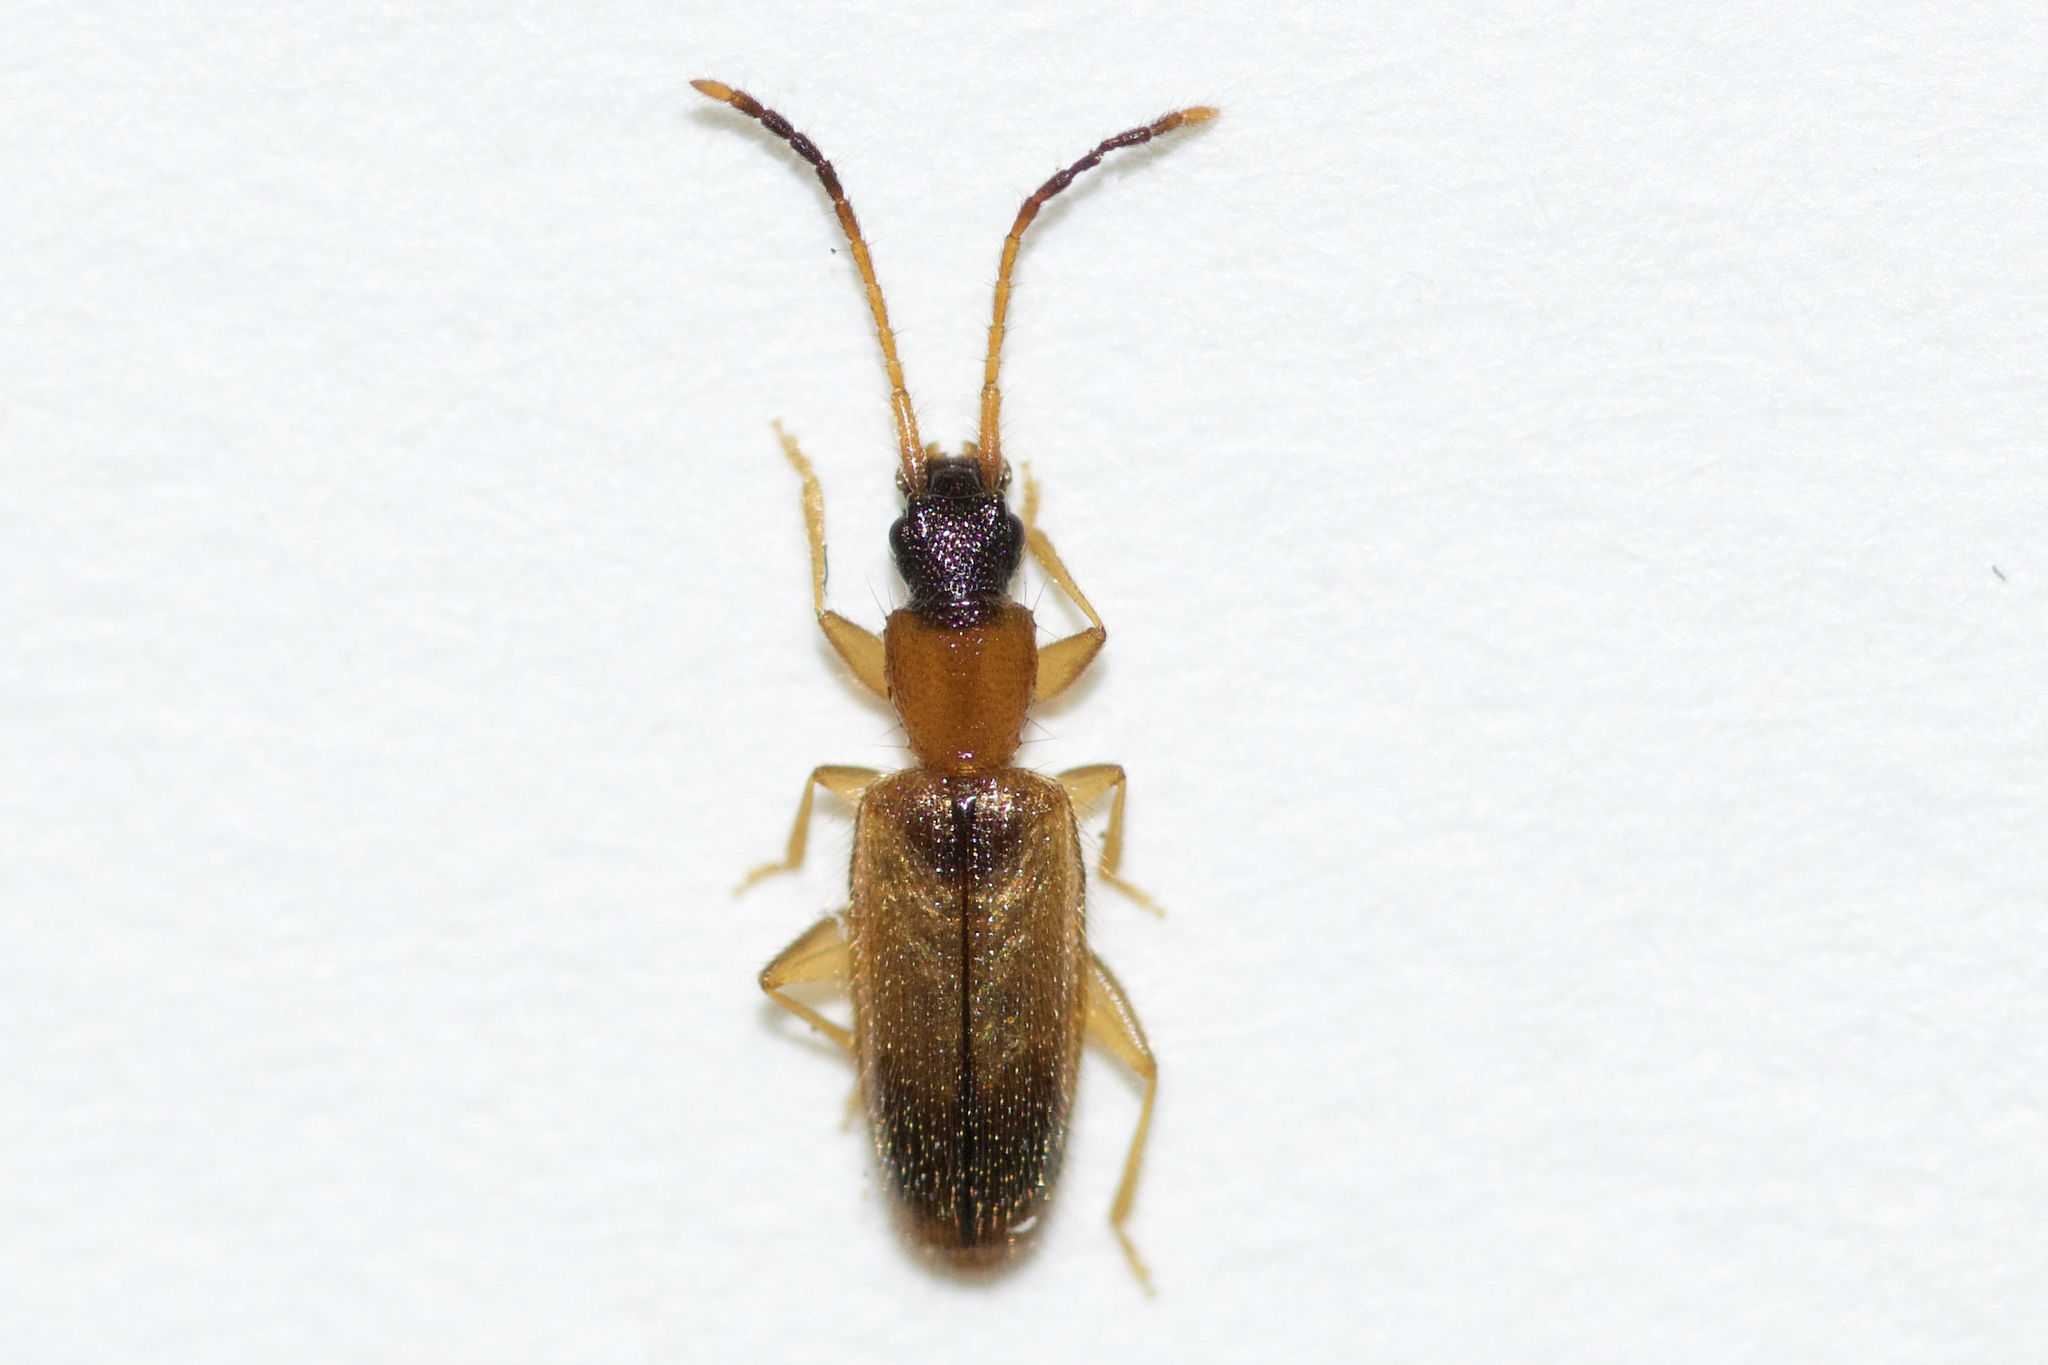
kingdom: Animalia
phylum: Arthropoda
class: Insecta
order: Coleoptera
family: Silvanidae
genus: Telephanus
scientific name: Telephanus velox
